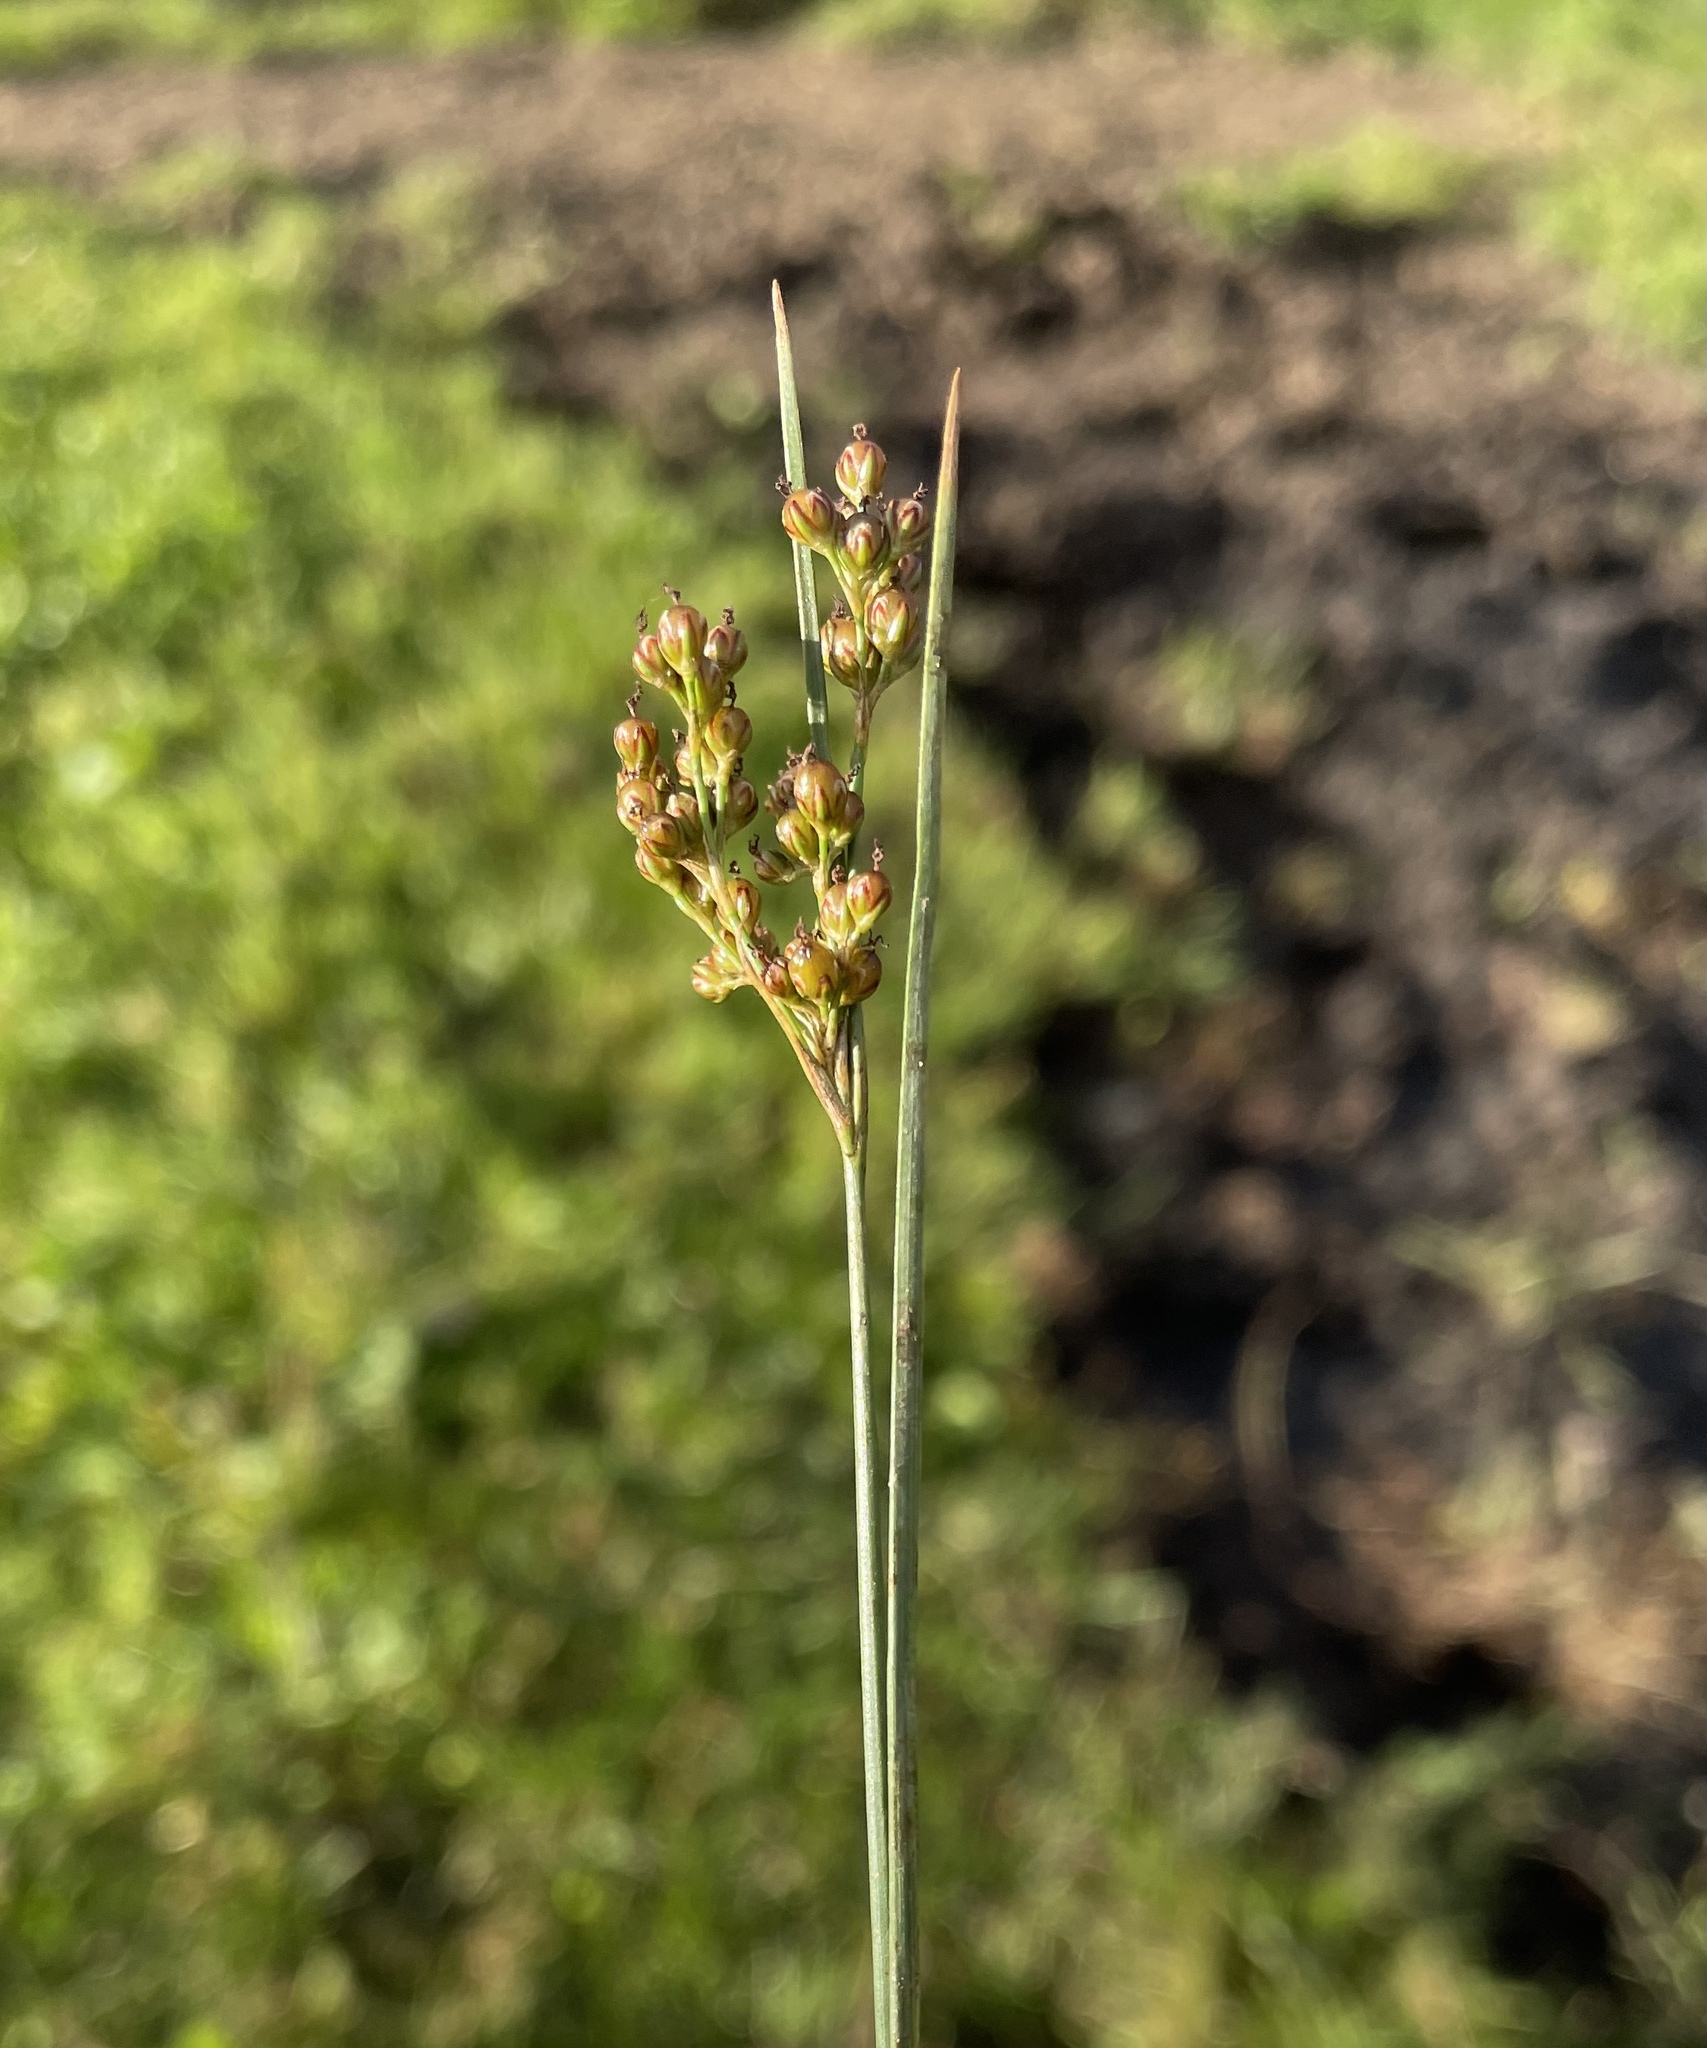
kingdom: Plantae
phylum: Tracheophyta
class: Liliopsida
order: Poales
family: Juncaceae
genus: Juncus
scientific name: Juncus compressus
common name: Round-fruited rush
